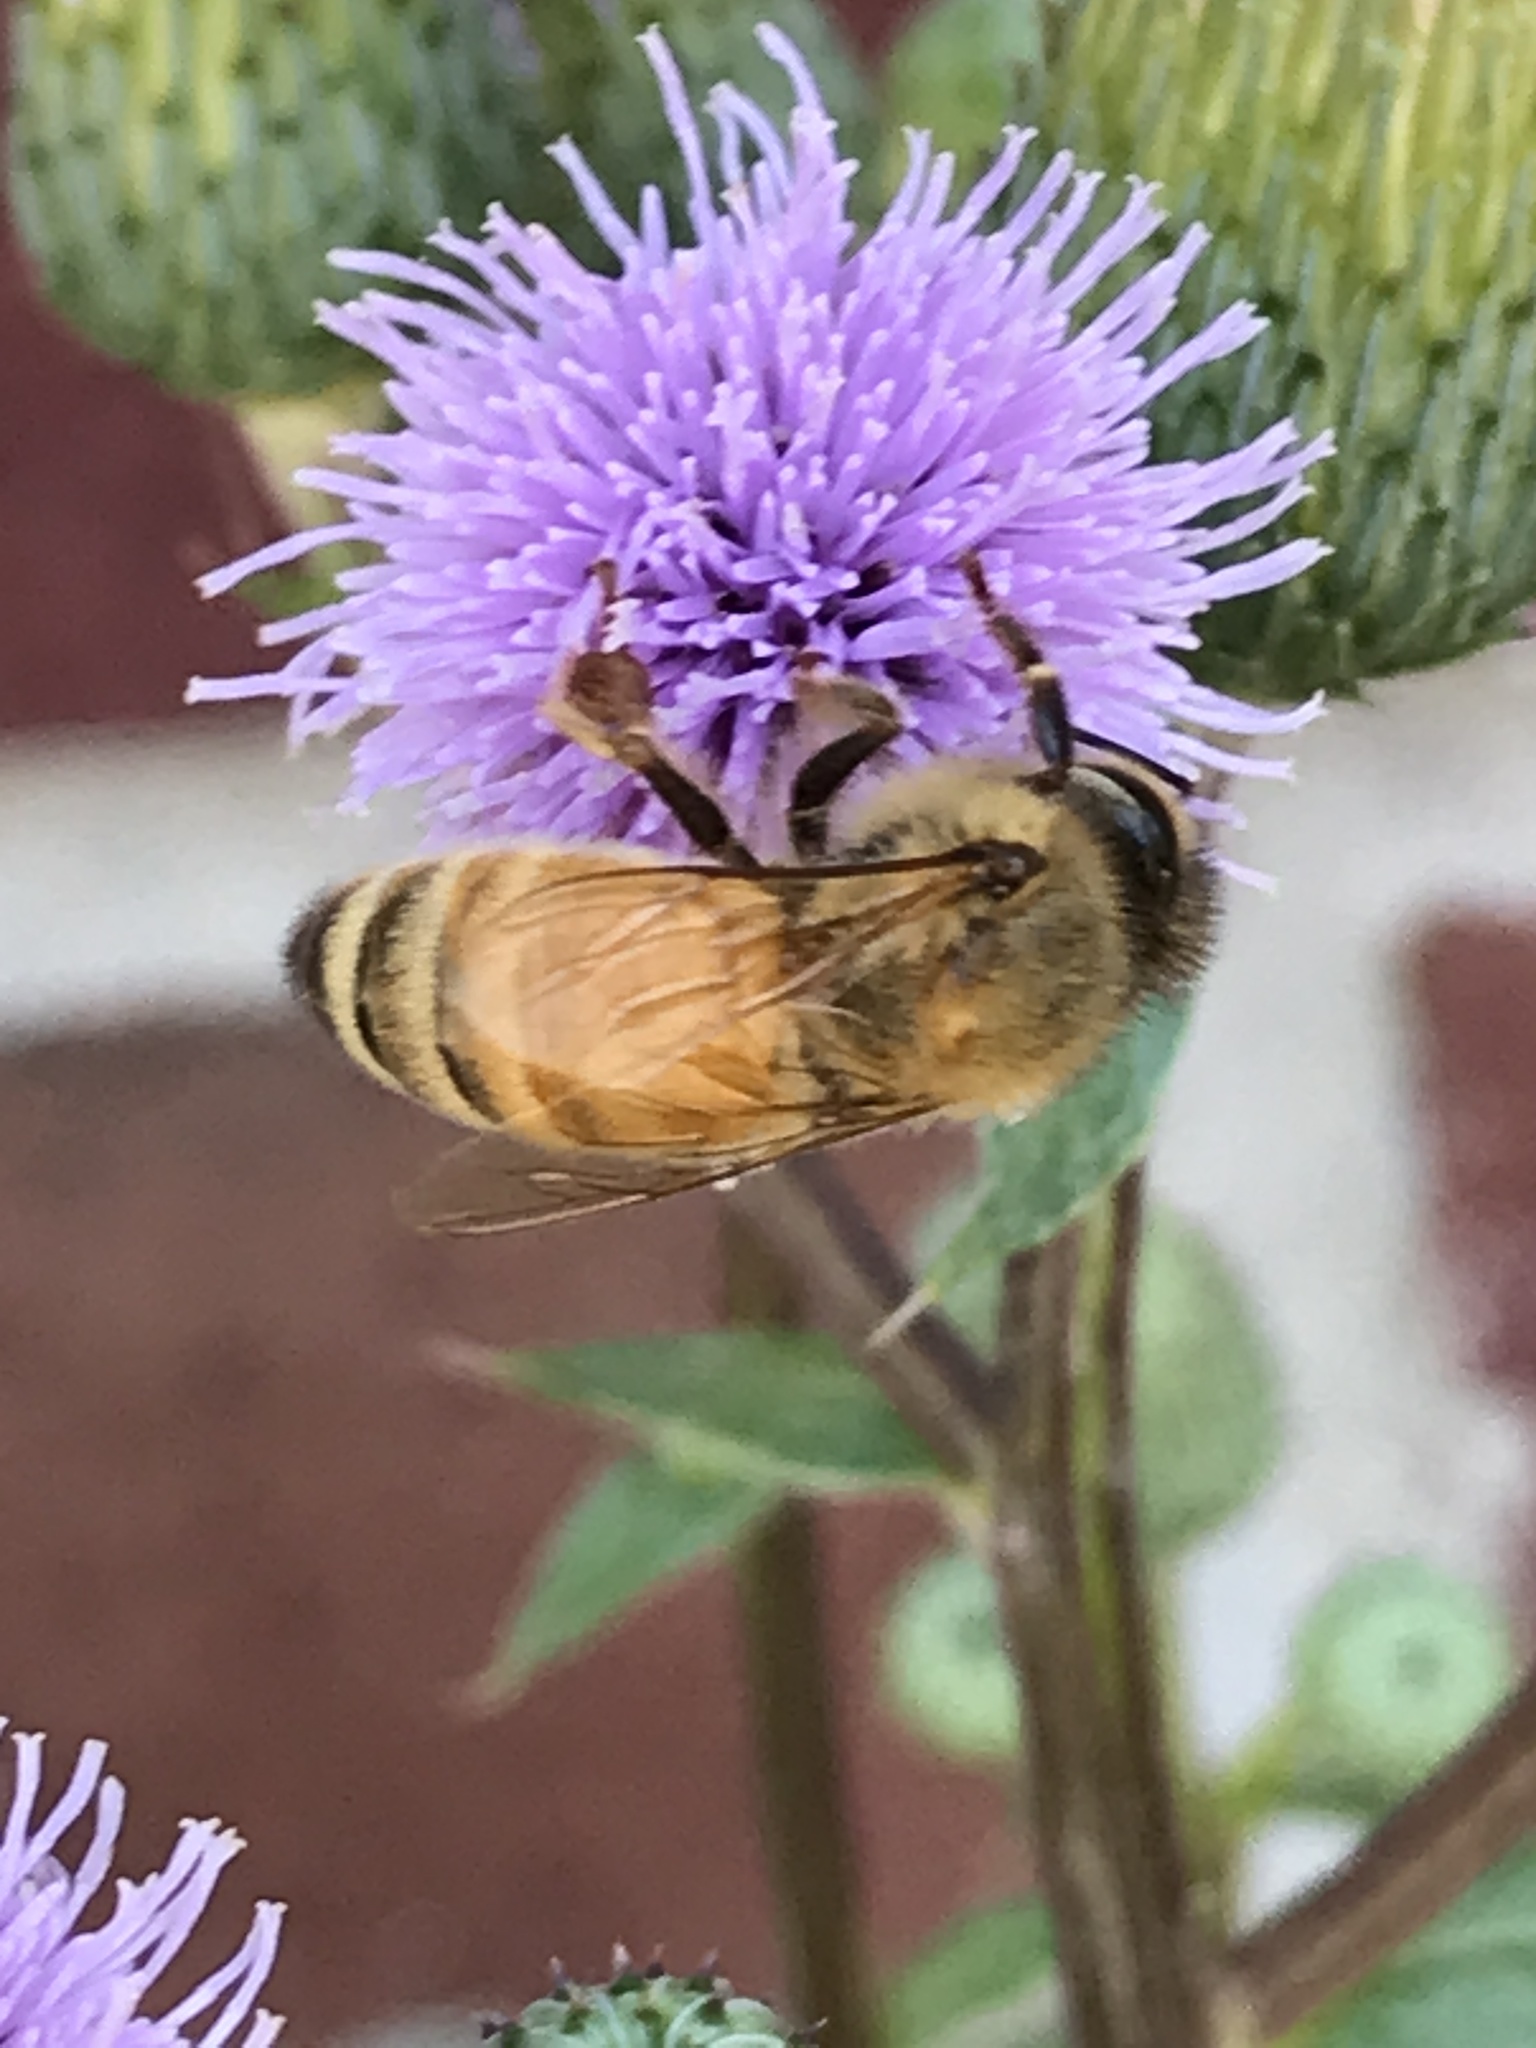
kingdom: Animalia
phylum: Arthropoda
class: Insecta
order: Hymenoptera
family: Apidae
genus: Apis
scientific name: Apis mellifera
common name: Honey bee
